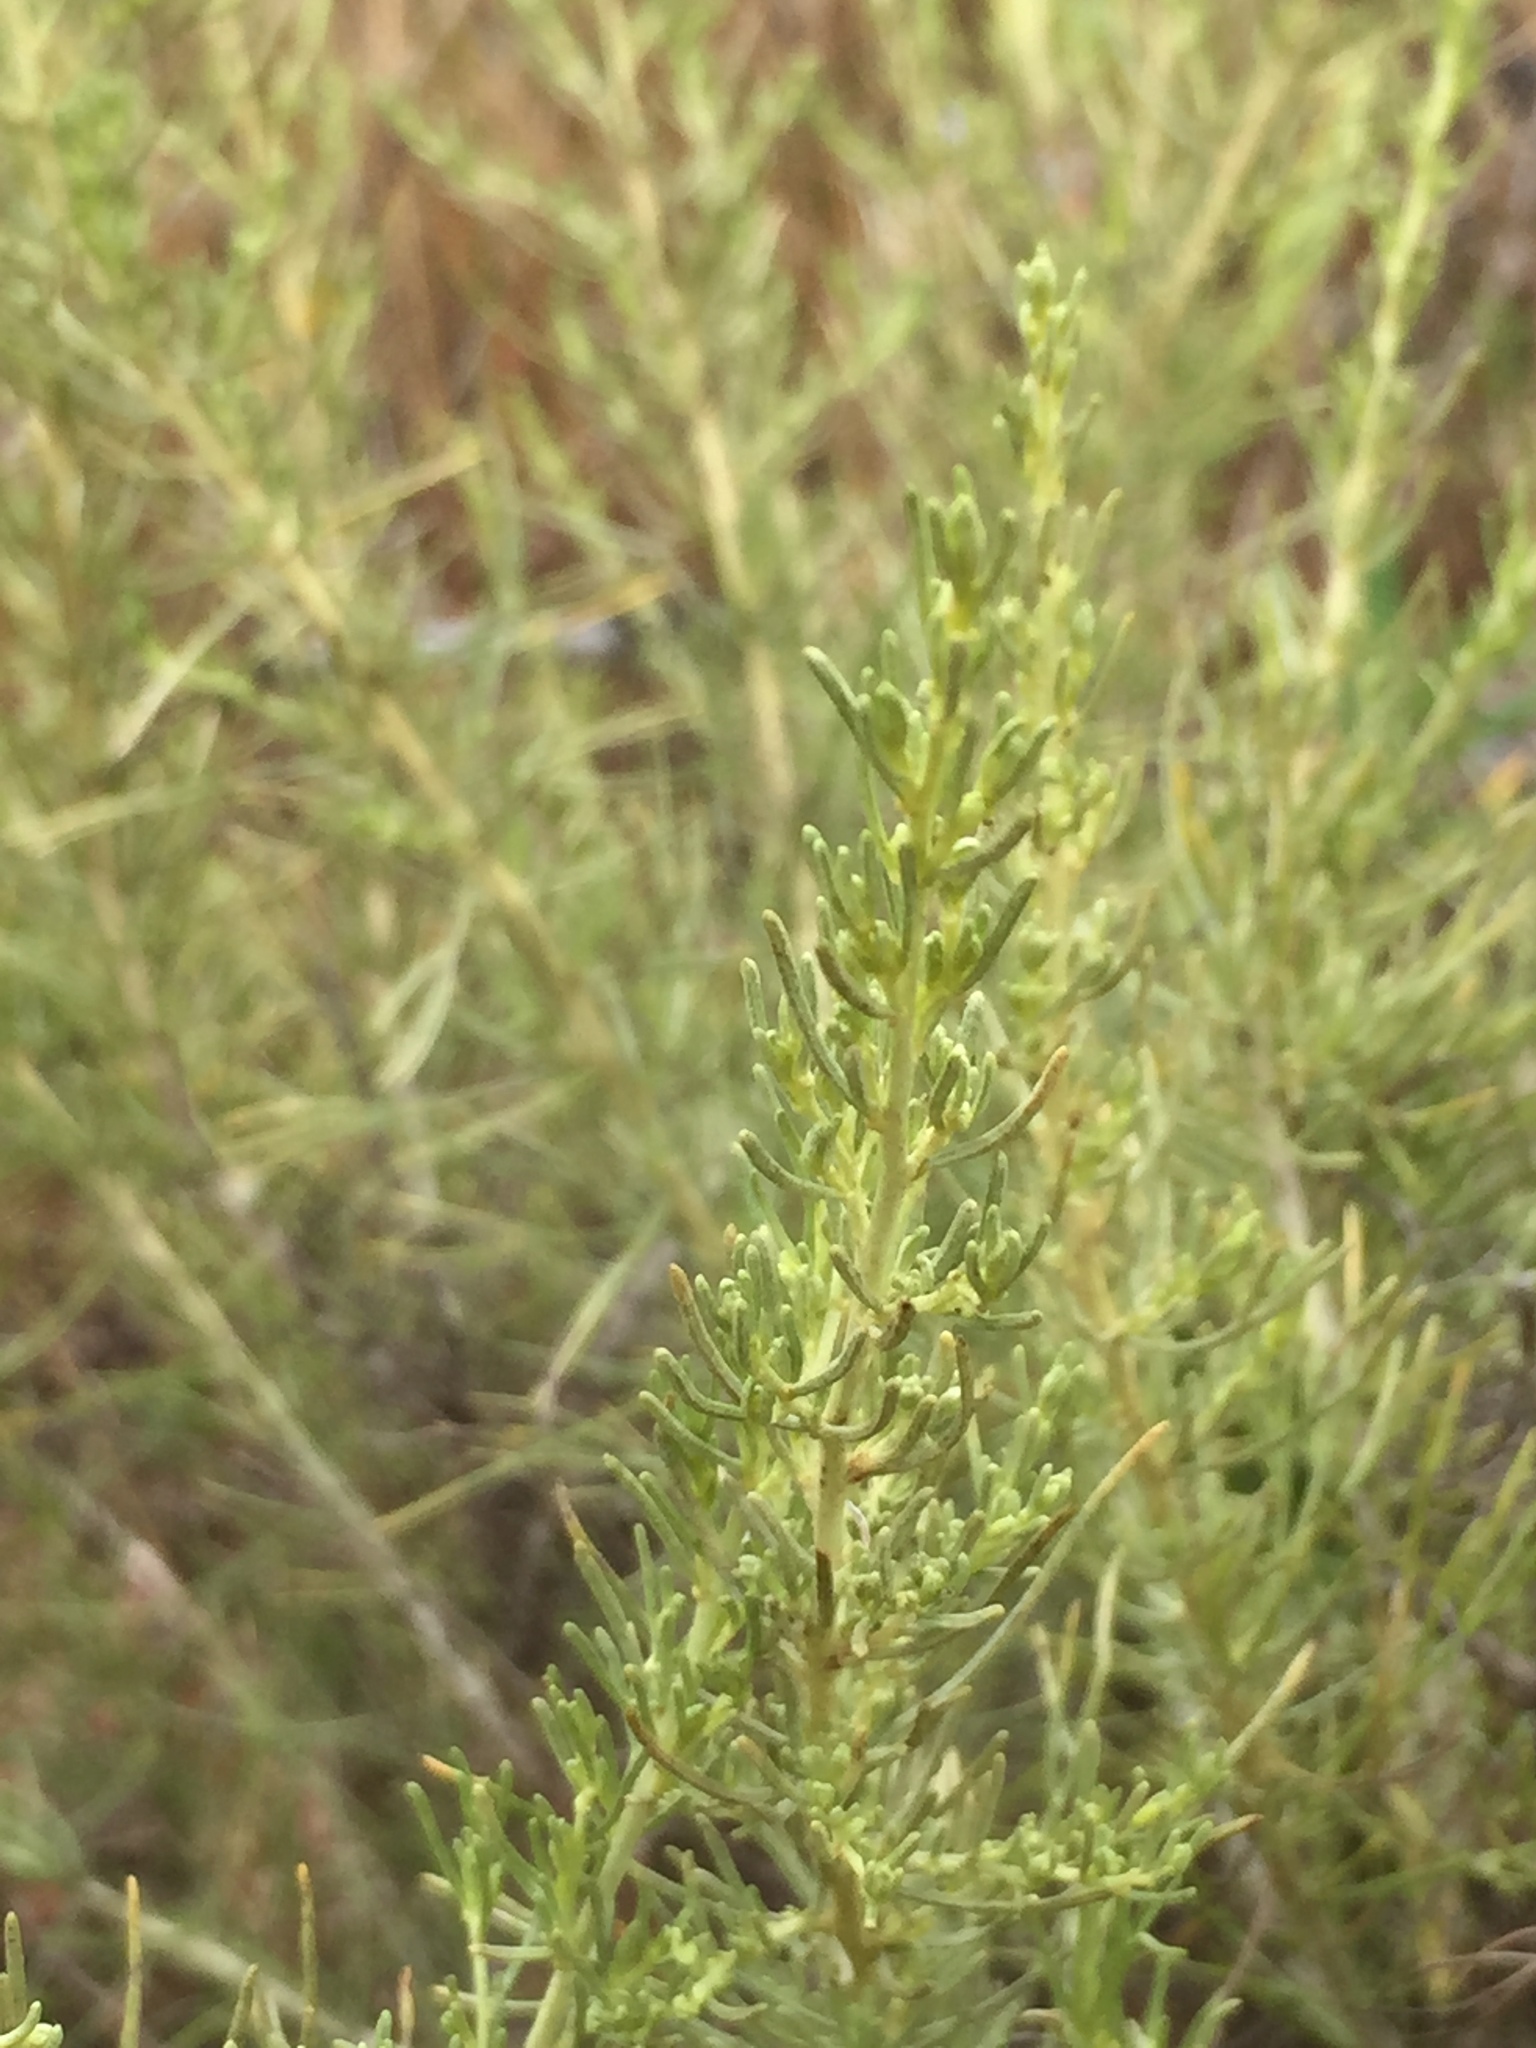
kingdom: Plantae
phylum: Tracheophyta
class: Magnoliopsida
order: Asterales
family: Asteraceae
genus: Artemisia
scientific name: Artemisia californica
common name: California sagebrush
